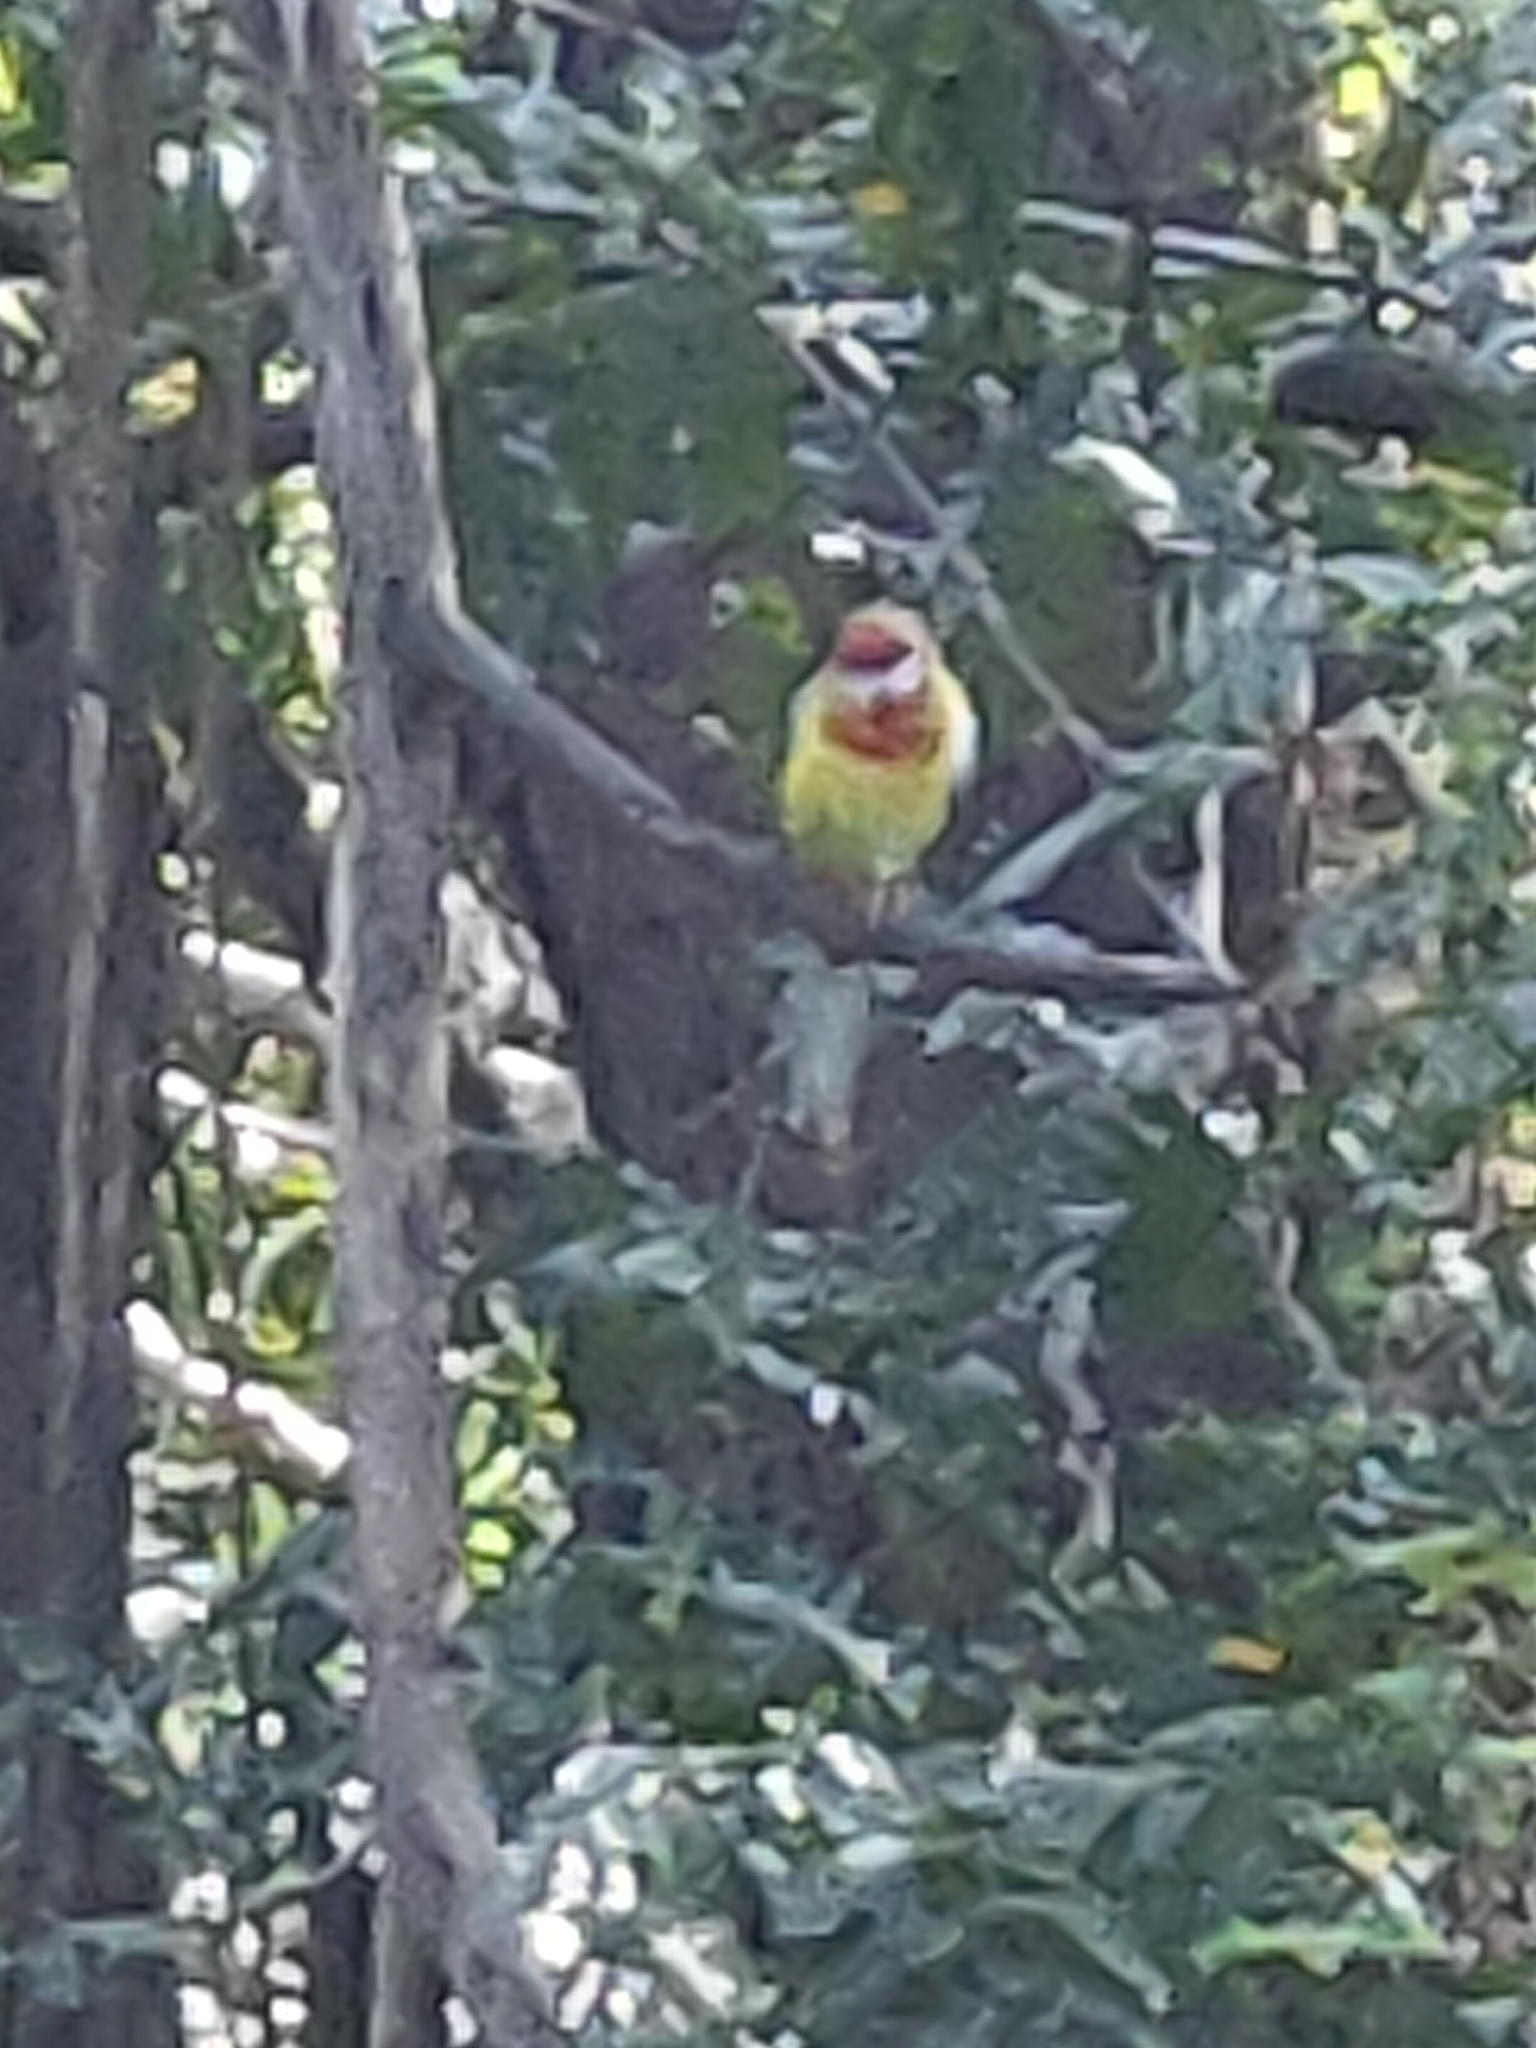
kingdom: Animalia
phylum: Chordata
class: Aves
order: Psittaciformes
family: Psittacidae
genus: Platycercus
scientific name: Platycercus eximius
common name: Eastern rosella
